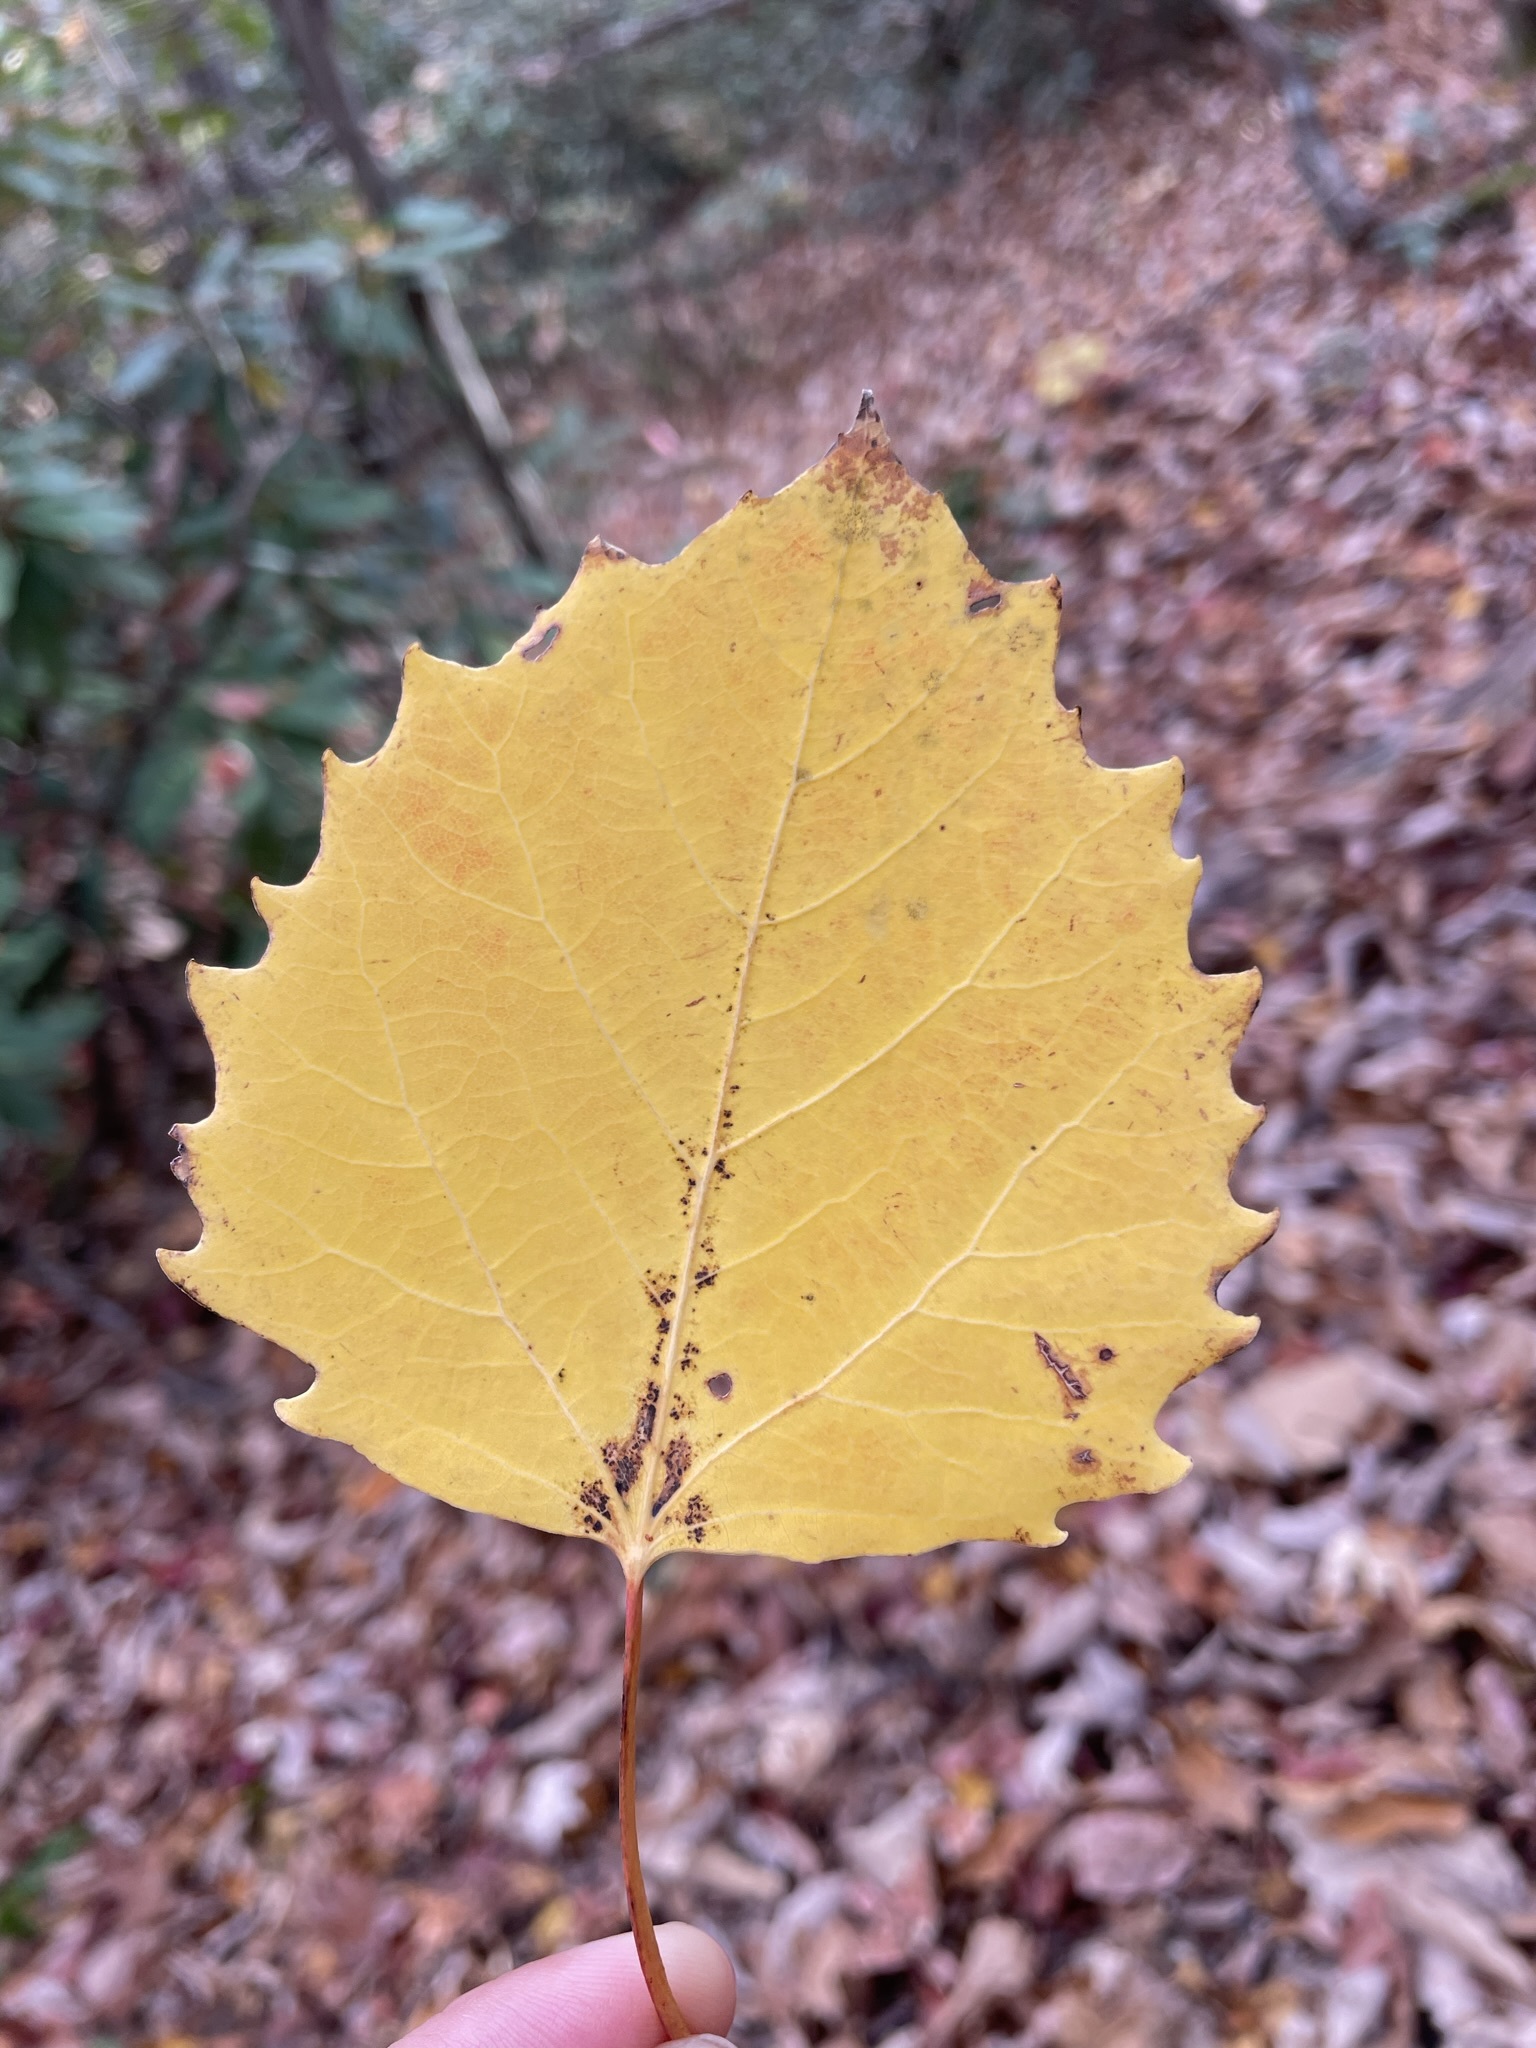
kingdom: Plantae
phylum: Tracheophyta
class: Magnoliopsida
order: Malpighiales
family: Salicaceae
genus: Populus
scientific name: Populus grandidentata
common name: Bigtooth aspen
